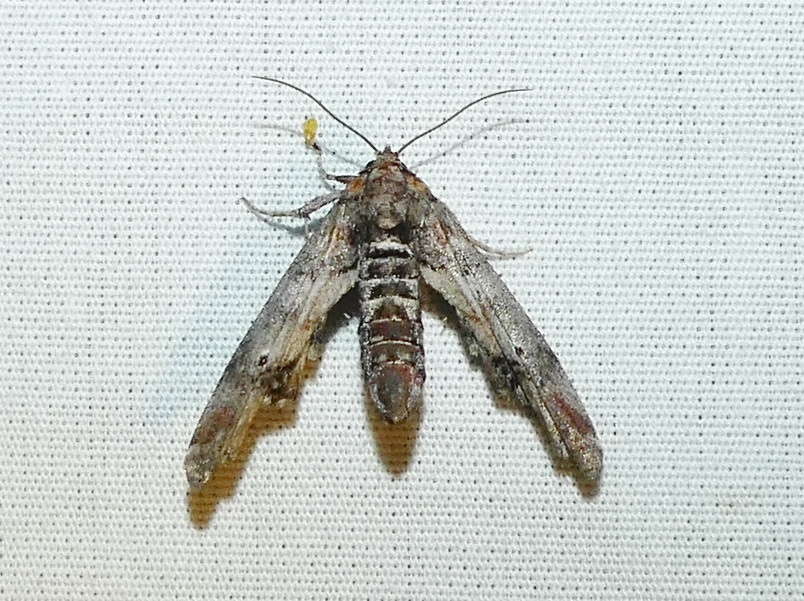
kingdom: Animalia
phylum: Arthropoda
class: Insecta
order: Lepidoptera
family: Euteliidae
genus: Marathyssa
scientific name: Marathyssa inficita
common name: Dark marathyssa moth
